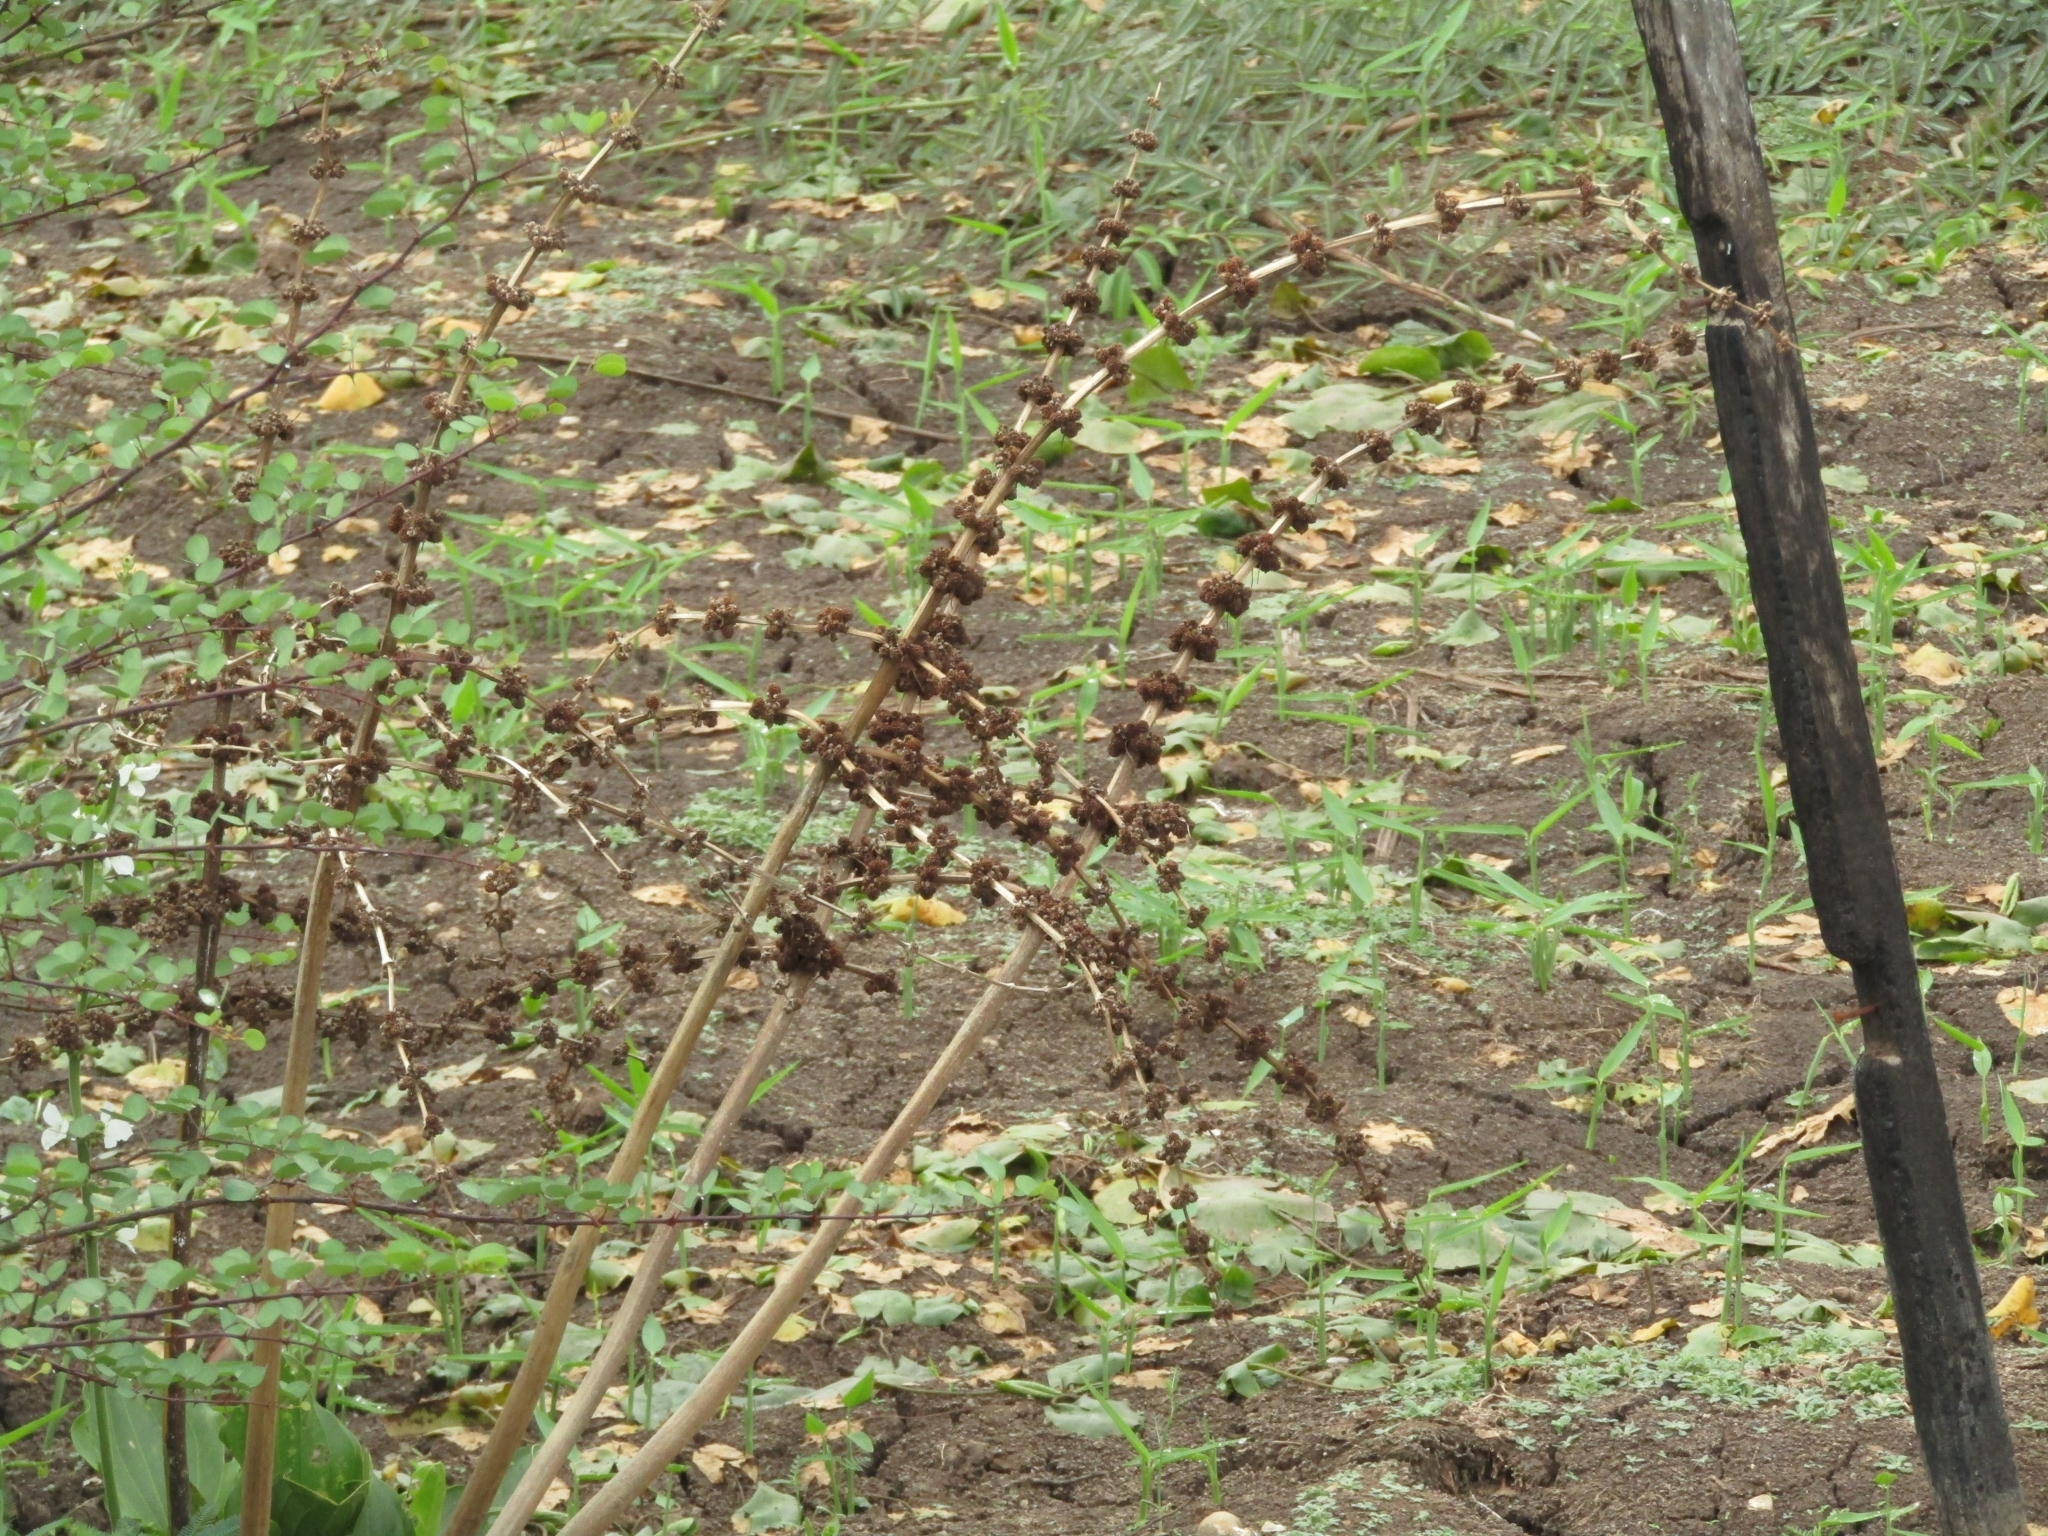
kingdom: Plantae
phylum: Tracheophyta
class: Liliopsida
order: Alismatales
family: Alismataceae
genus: Aquarius
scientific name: Aquarius pubescens
